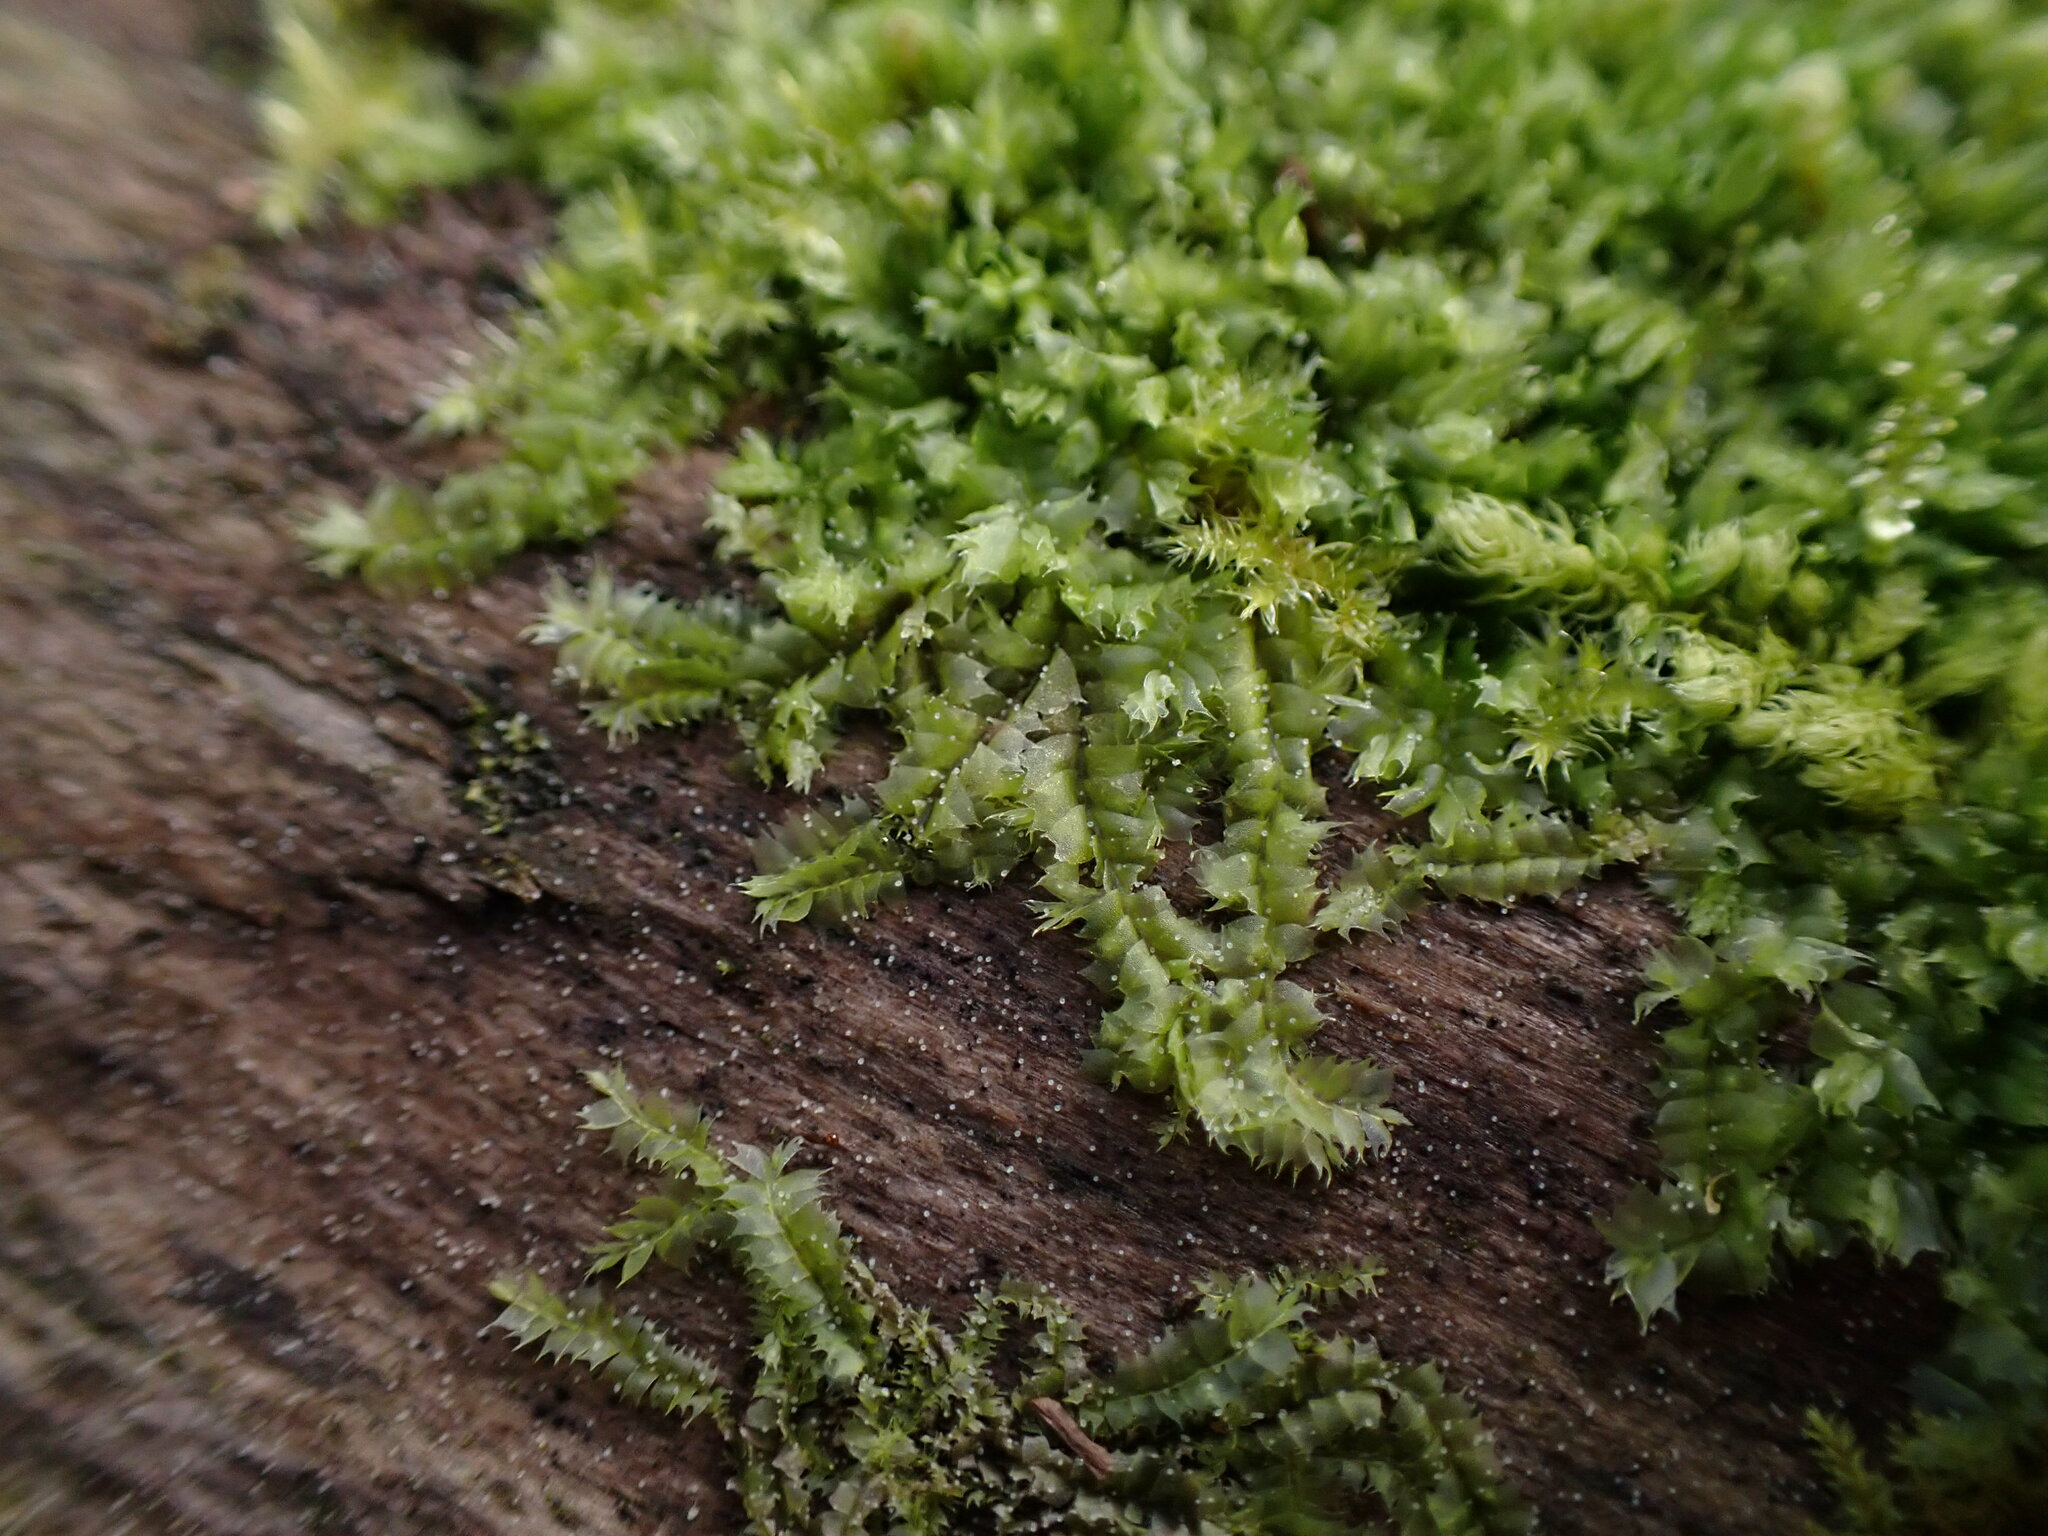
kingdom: Plantae
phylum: Marchantiophyta
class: Jungermanniopsida
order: Jungermanniales
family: Lophocoleaceae
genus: Lophocolea
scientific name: Lophocolea bidentata
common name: Bifid crestwort
